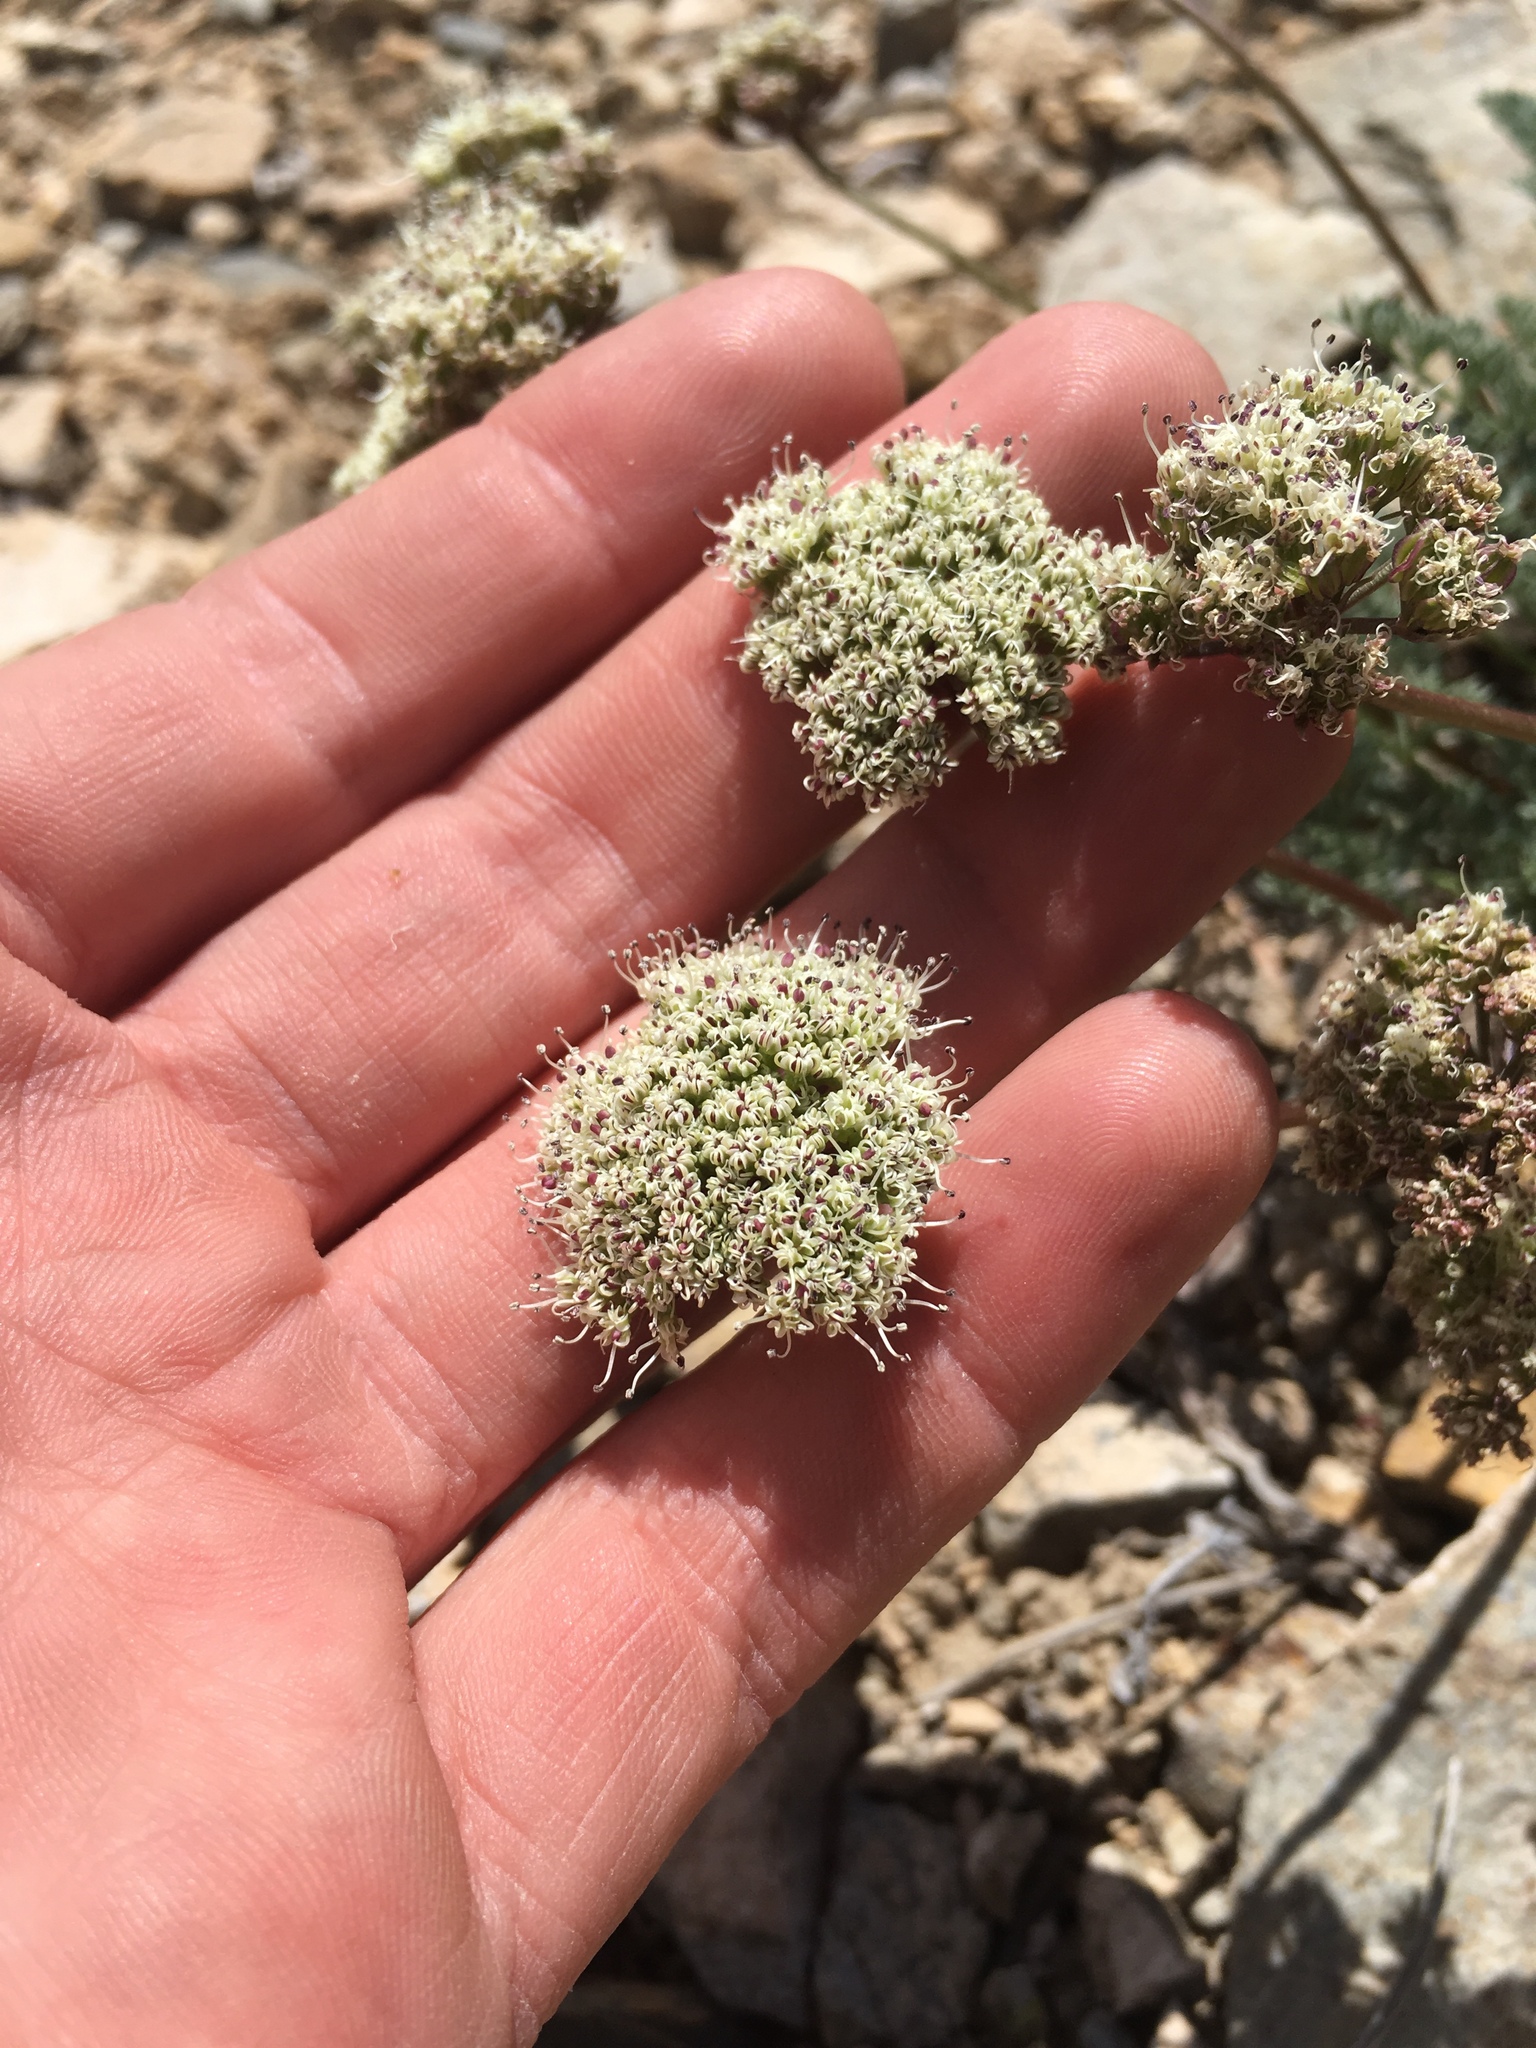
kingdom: Plantae
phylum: Tracheophyta
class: Magnoliopsida
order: Apiales
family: Apiaceae
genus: Aulospermum
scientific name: Aulospermum aboriginum
